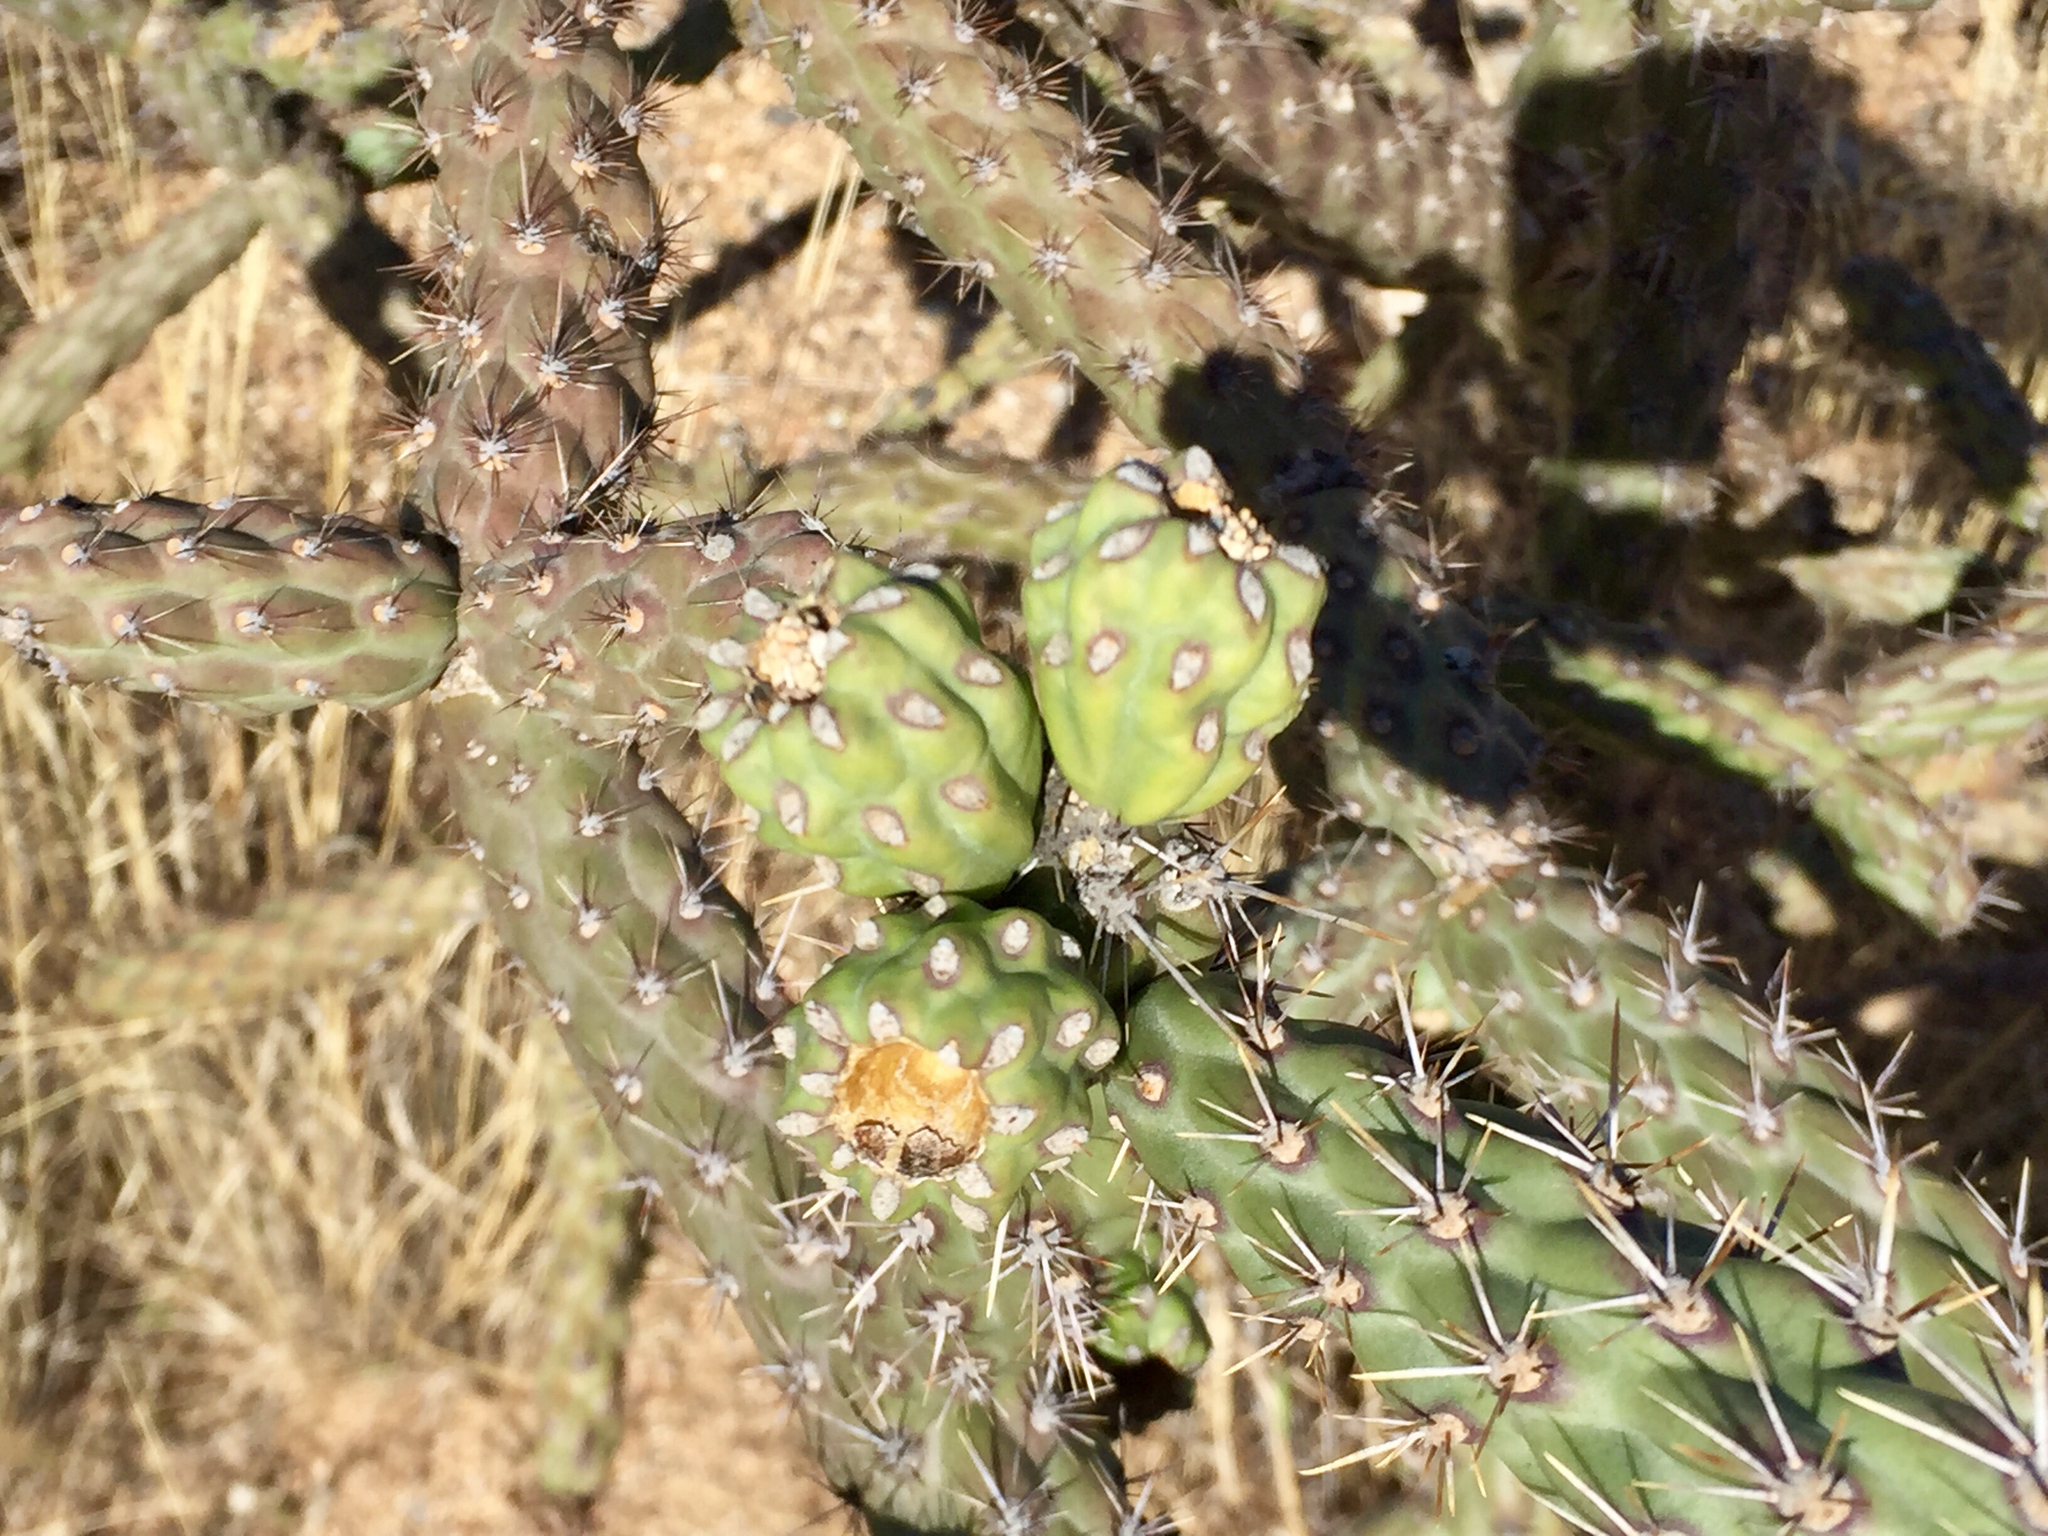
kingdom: Plantae
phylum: Tracheophyta
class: Magnoliopsida
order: Caryophyllales
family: Cactaceae
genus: Cylindropuntia
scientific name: Cylindropuntia thurberi
